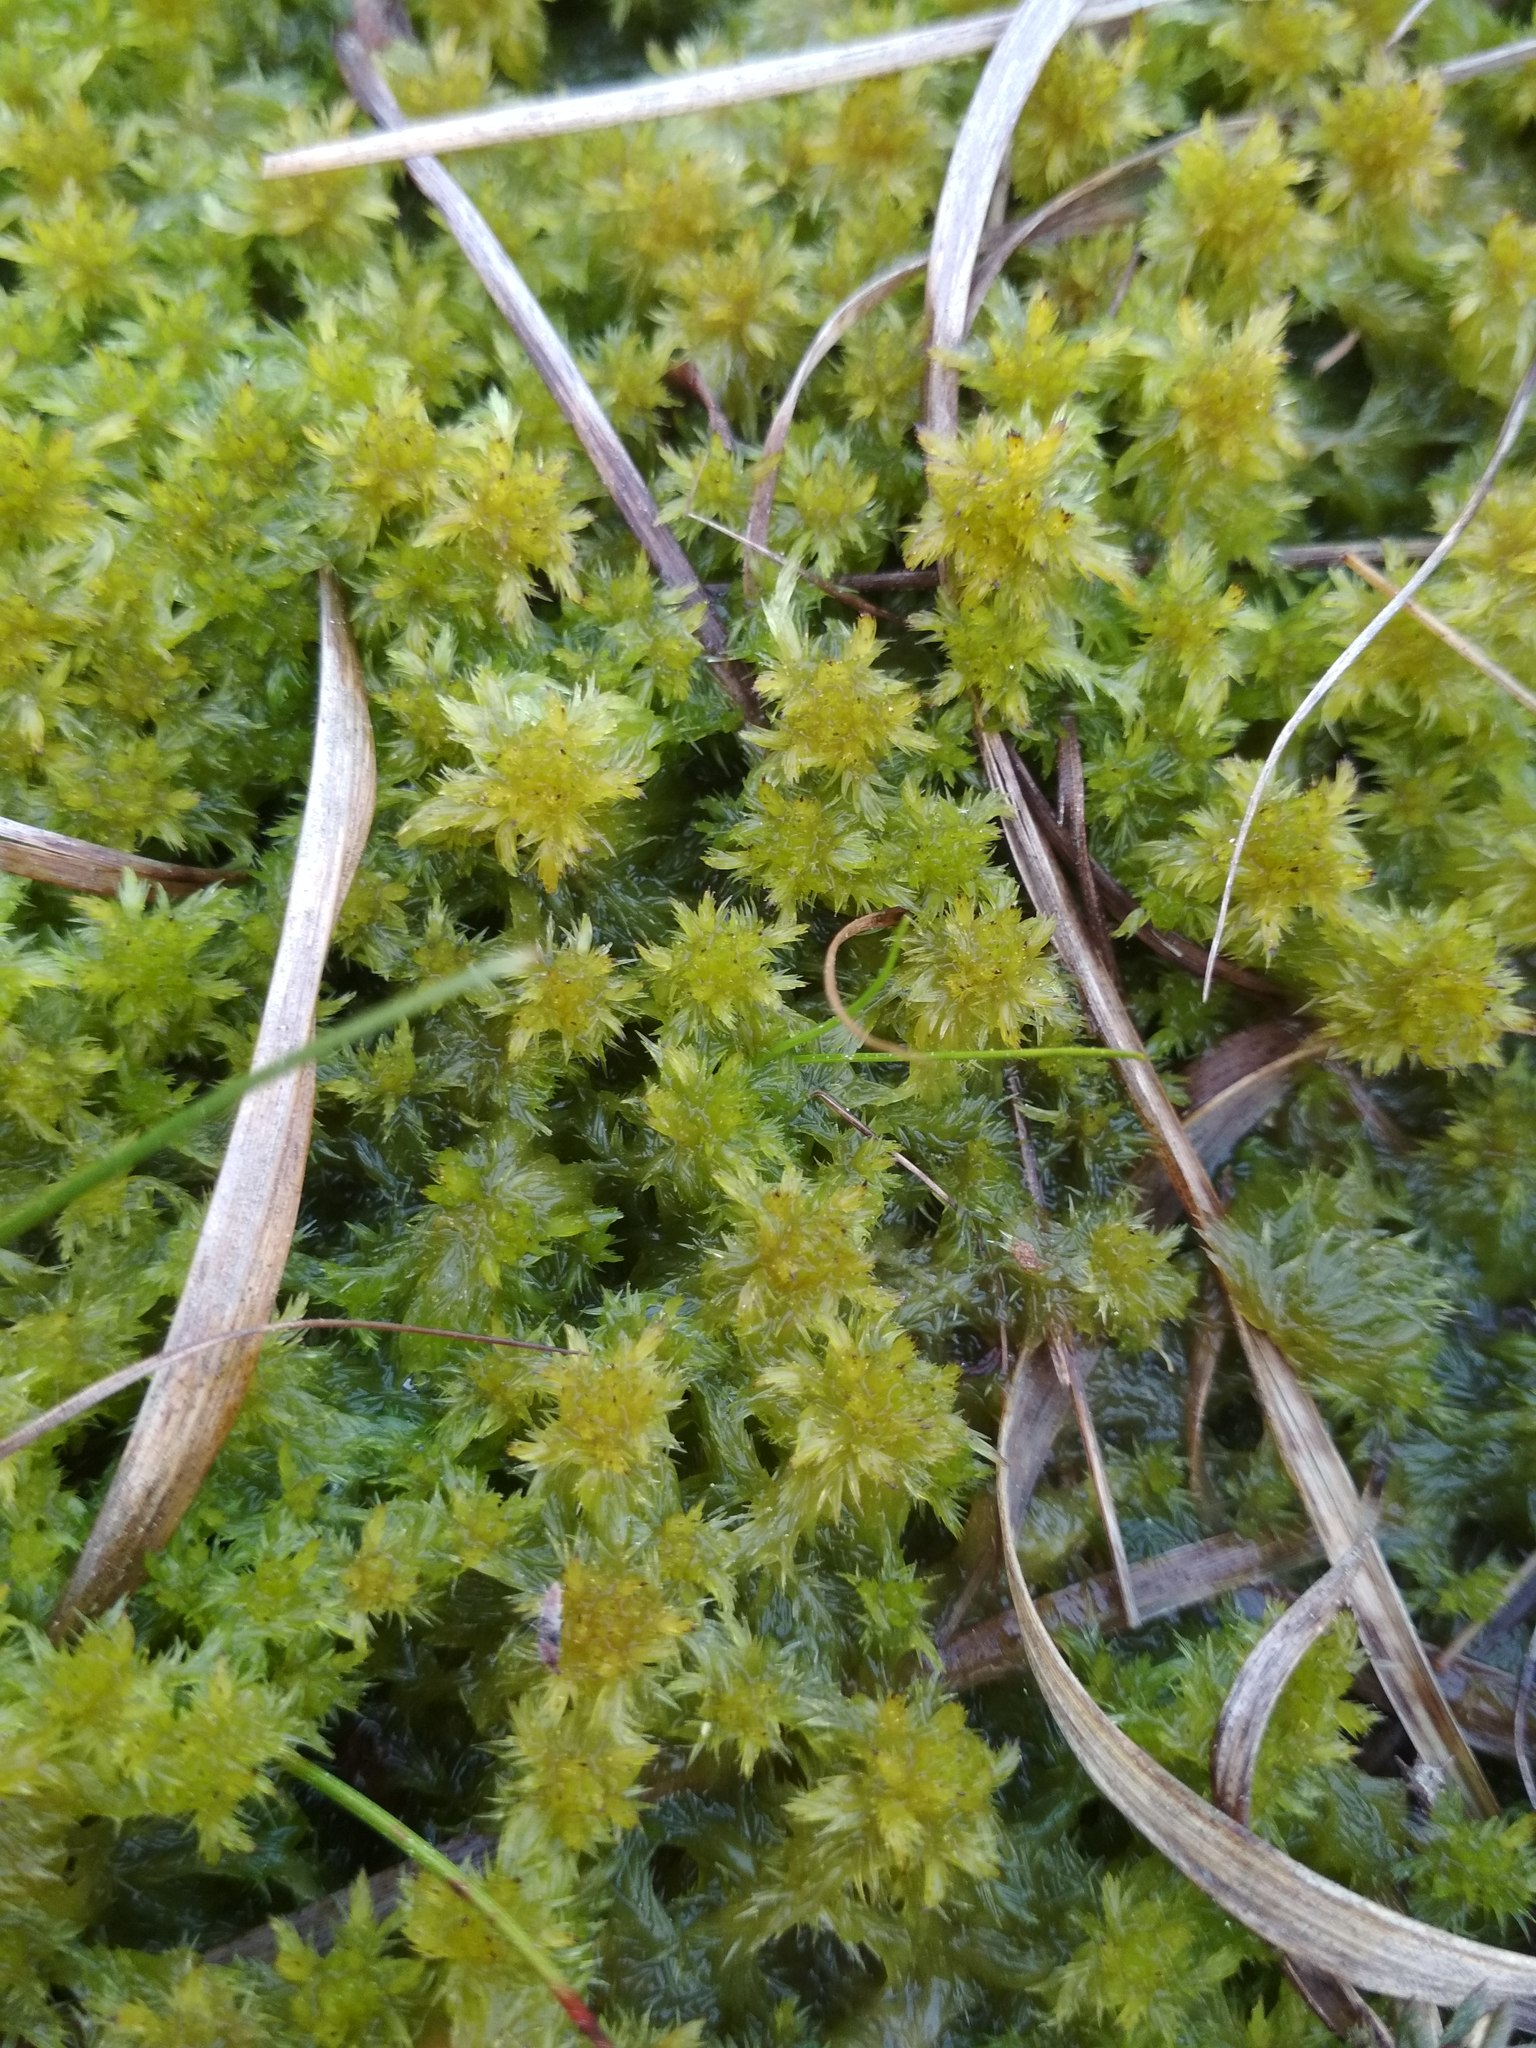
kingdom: Plantae
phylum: Bryophyta
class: Sphagnopsida
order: Sphagnales
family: Sphagnaceae
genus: Sphagnum
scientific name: Sphagnum cuspidatum
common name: Feathery peat moss
